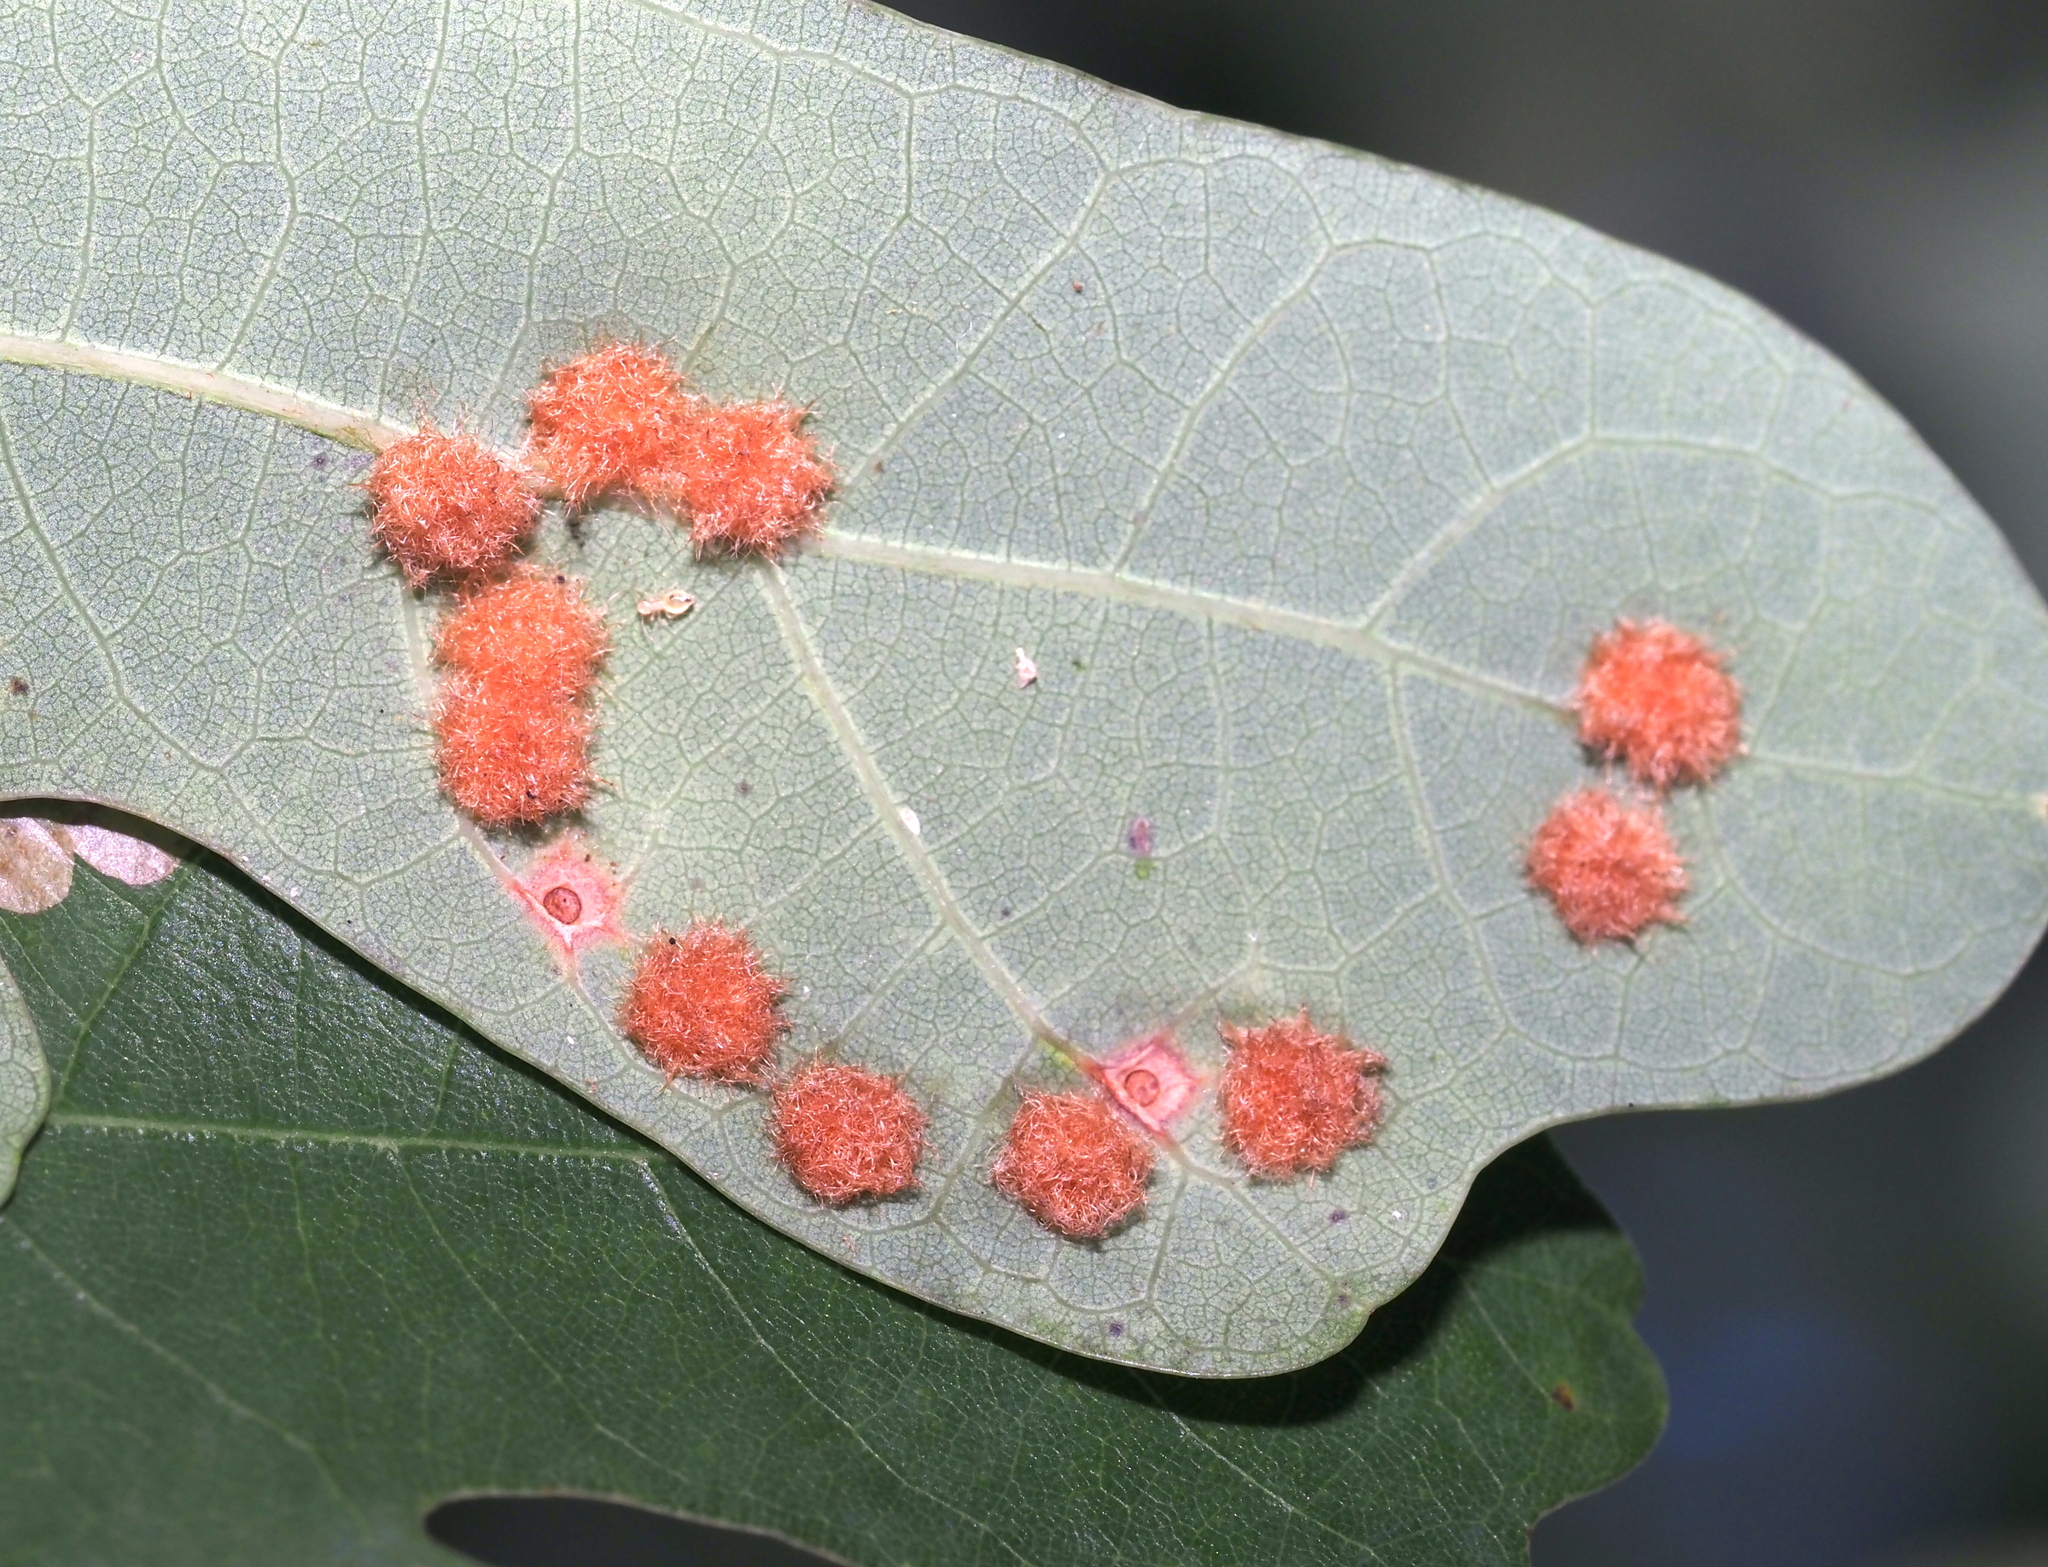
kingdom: Animalia
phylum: Arthropoda
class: Insecta
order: Hymenoptera
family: Cynipidae
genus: Neuroterus
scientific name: Neuroterus quercusverrucarum
